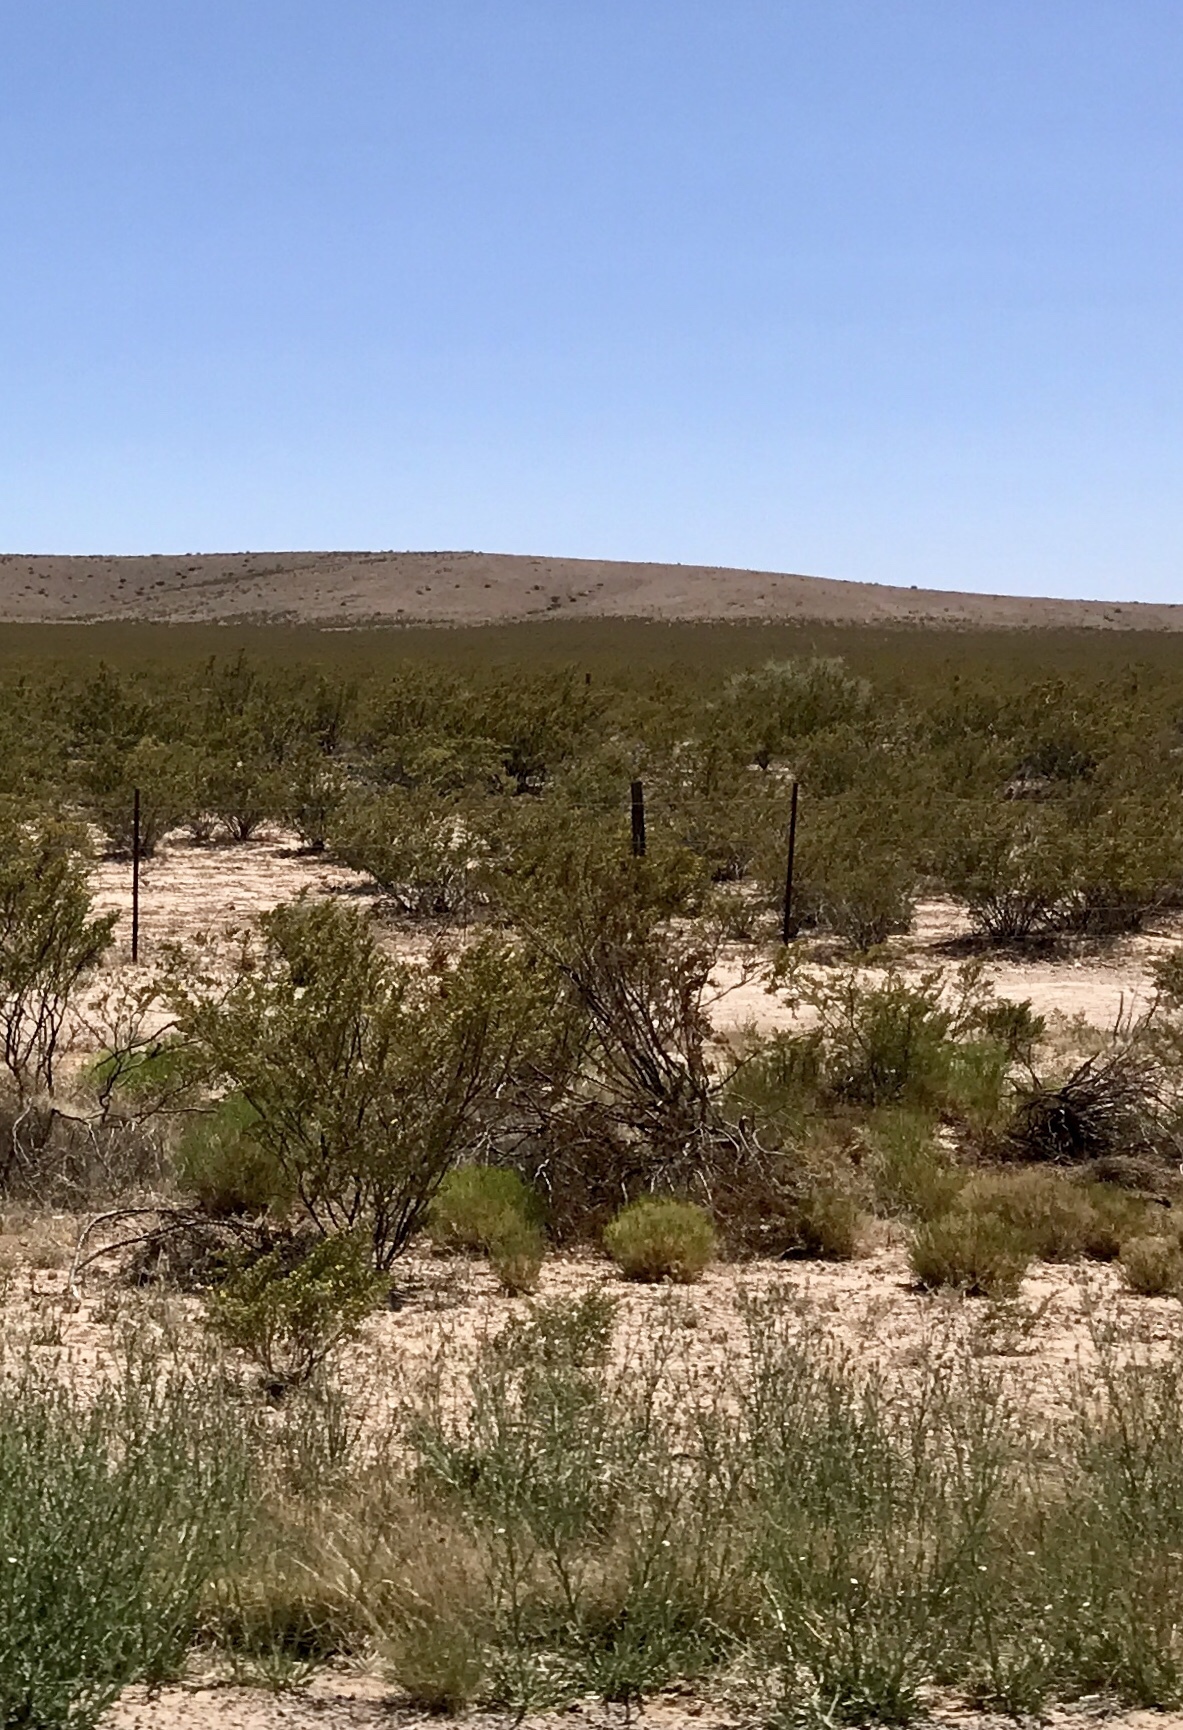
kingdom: Plantae
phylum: Tracheophyta
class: Magnoliopsida
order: Zygophyllales
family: Zygophyllaceae
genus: Larrea
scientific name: Larrea tridentata
